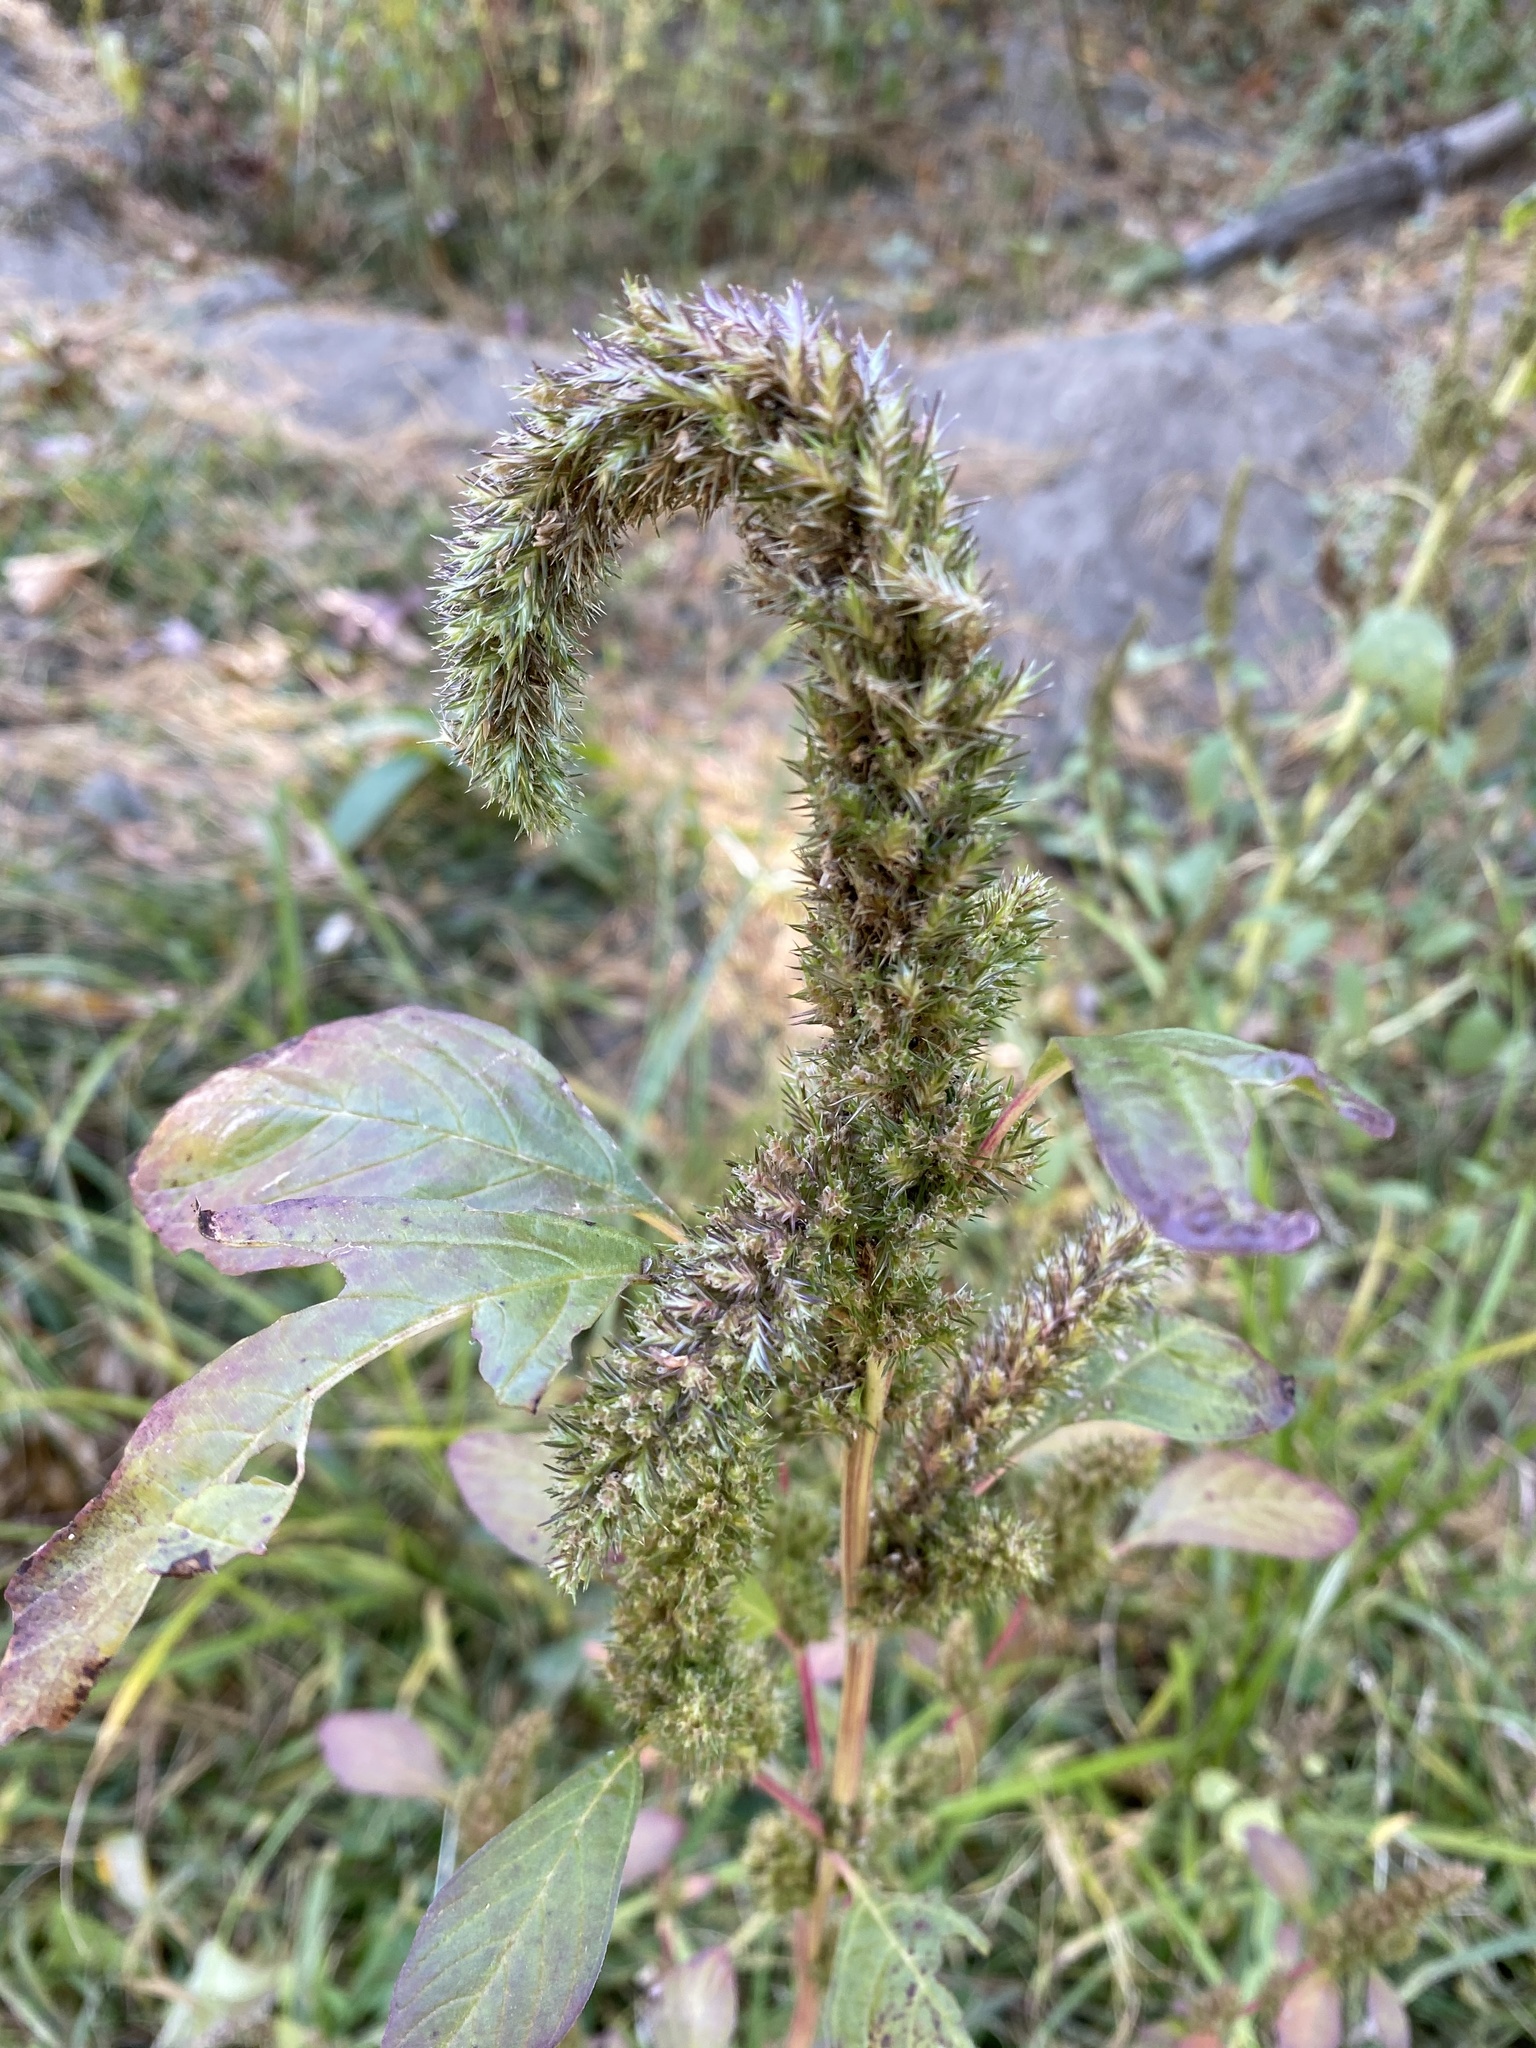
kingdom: Plantae
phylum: Tracheophyta
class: Magnoliopsida
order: Caryophyllales
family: Amaranthaceae
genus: Amaranthus
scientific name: Amaranthus retroflexus
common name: Redroot amaranth
